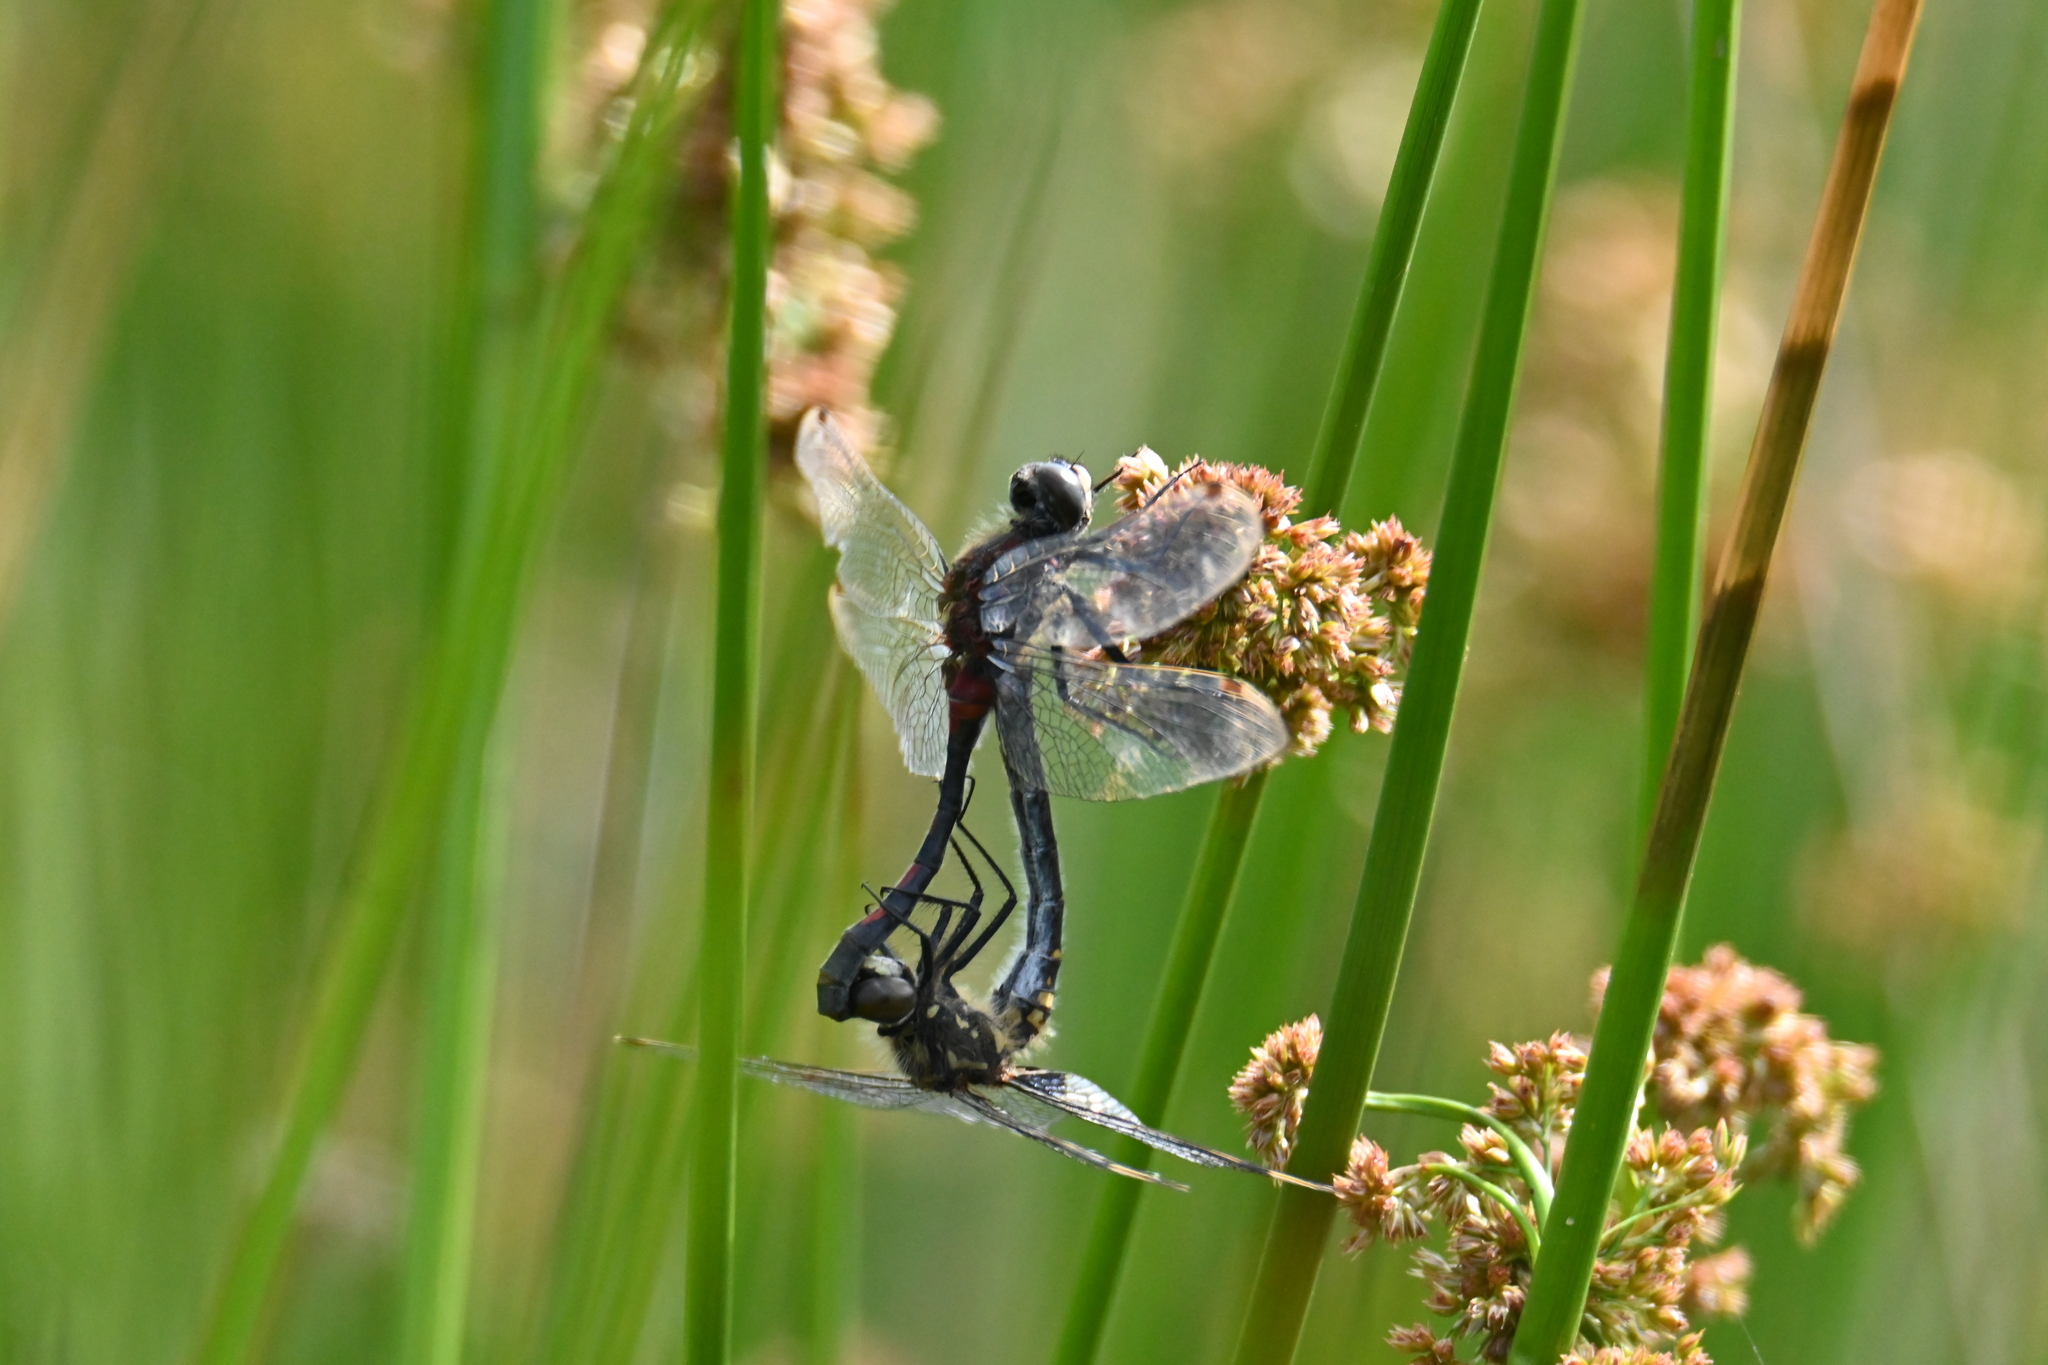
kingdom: Animalia
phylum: Arthropoda
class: Insecta
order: Odonata
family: Libellulidae
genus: Leucorrhinia
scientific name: Leucorrhinia dubia
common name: White-faced darter
